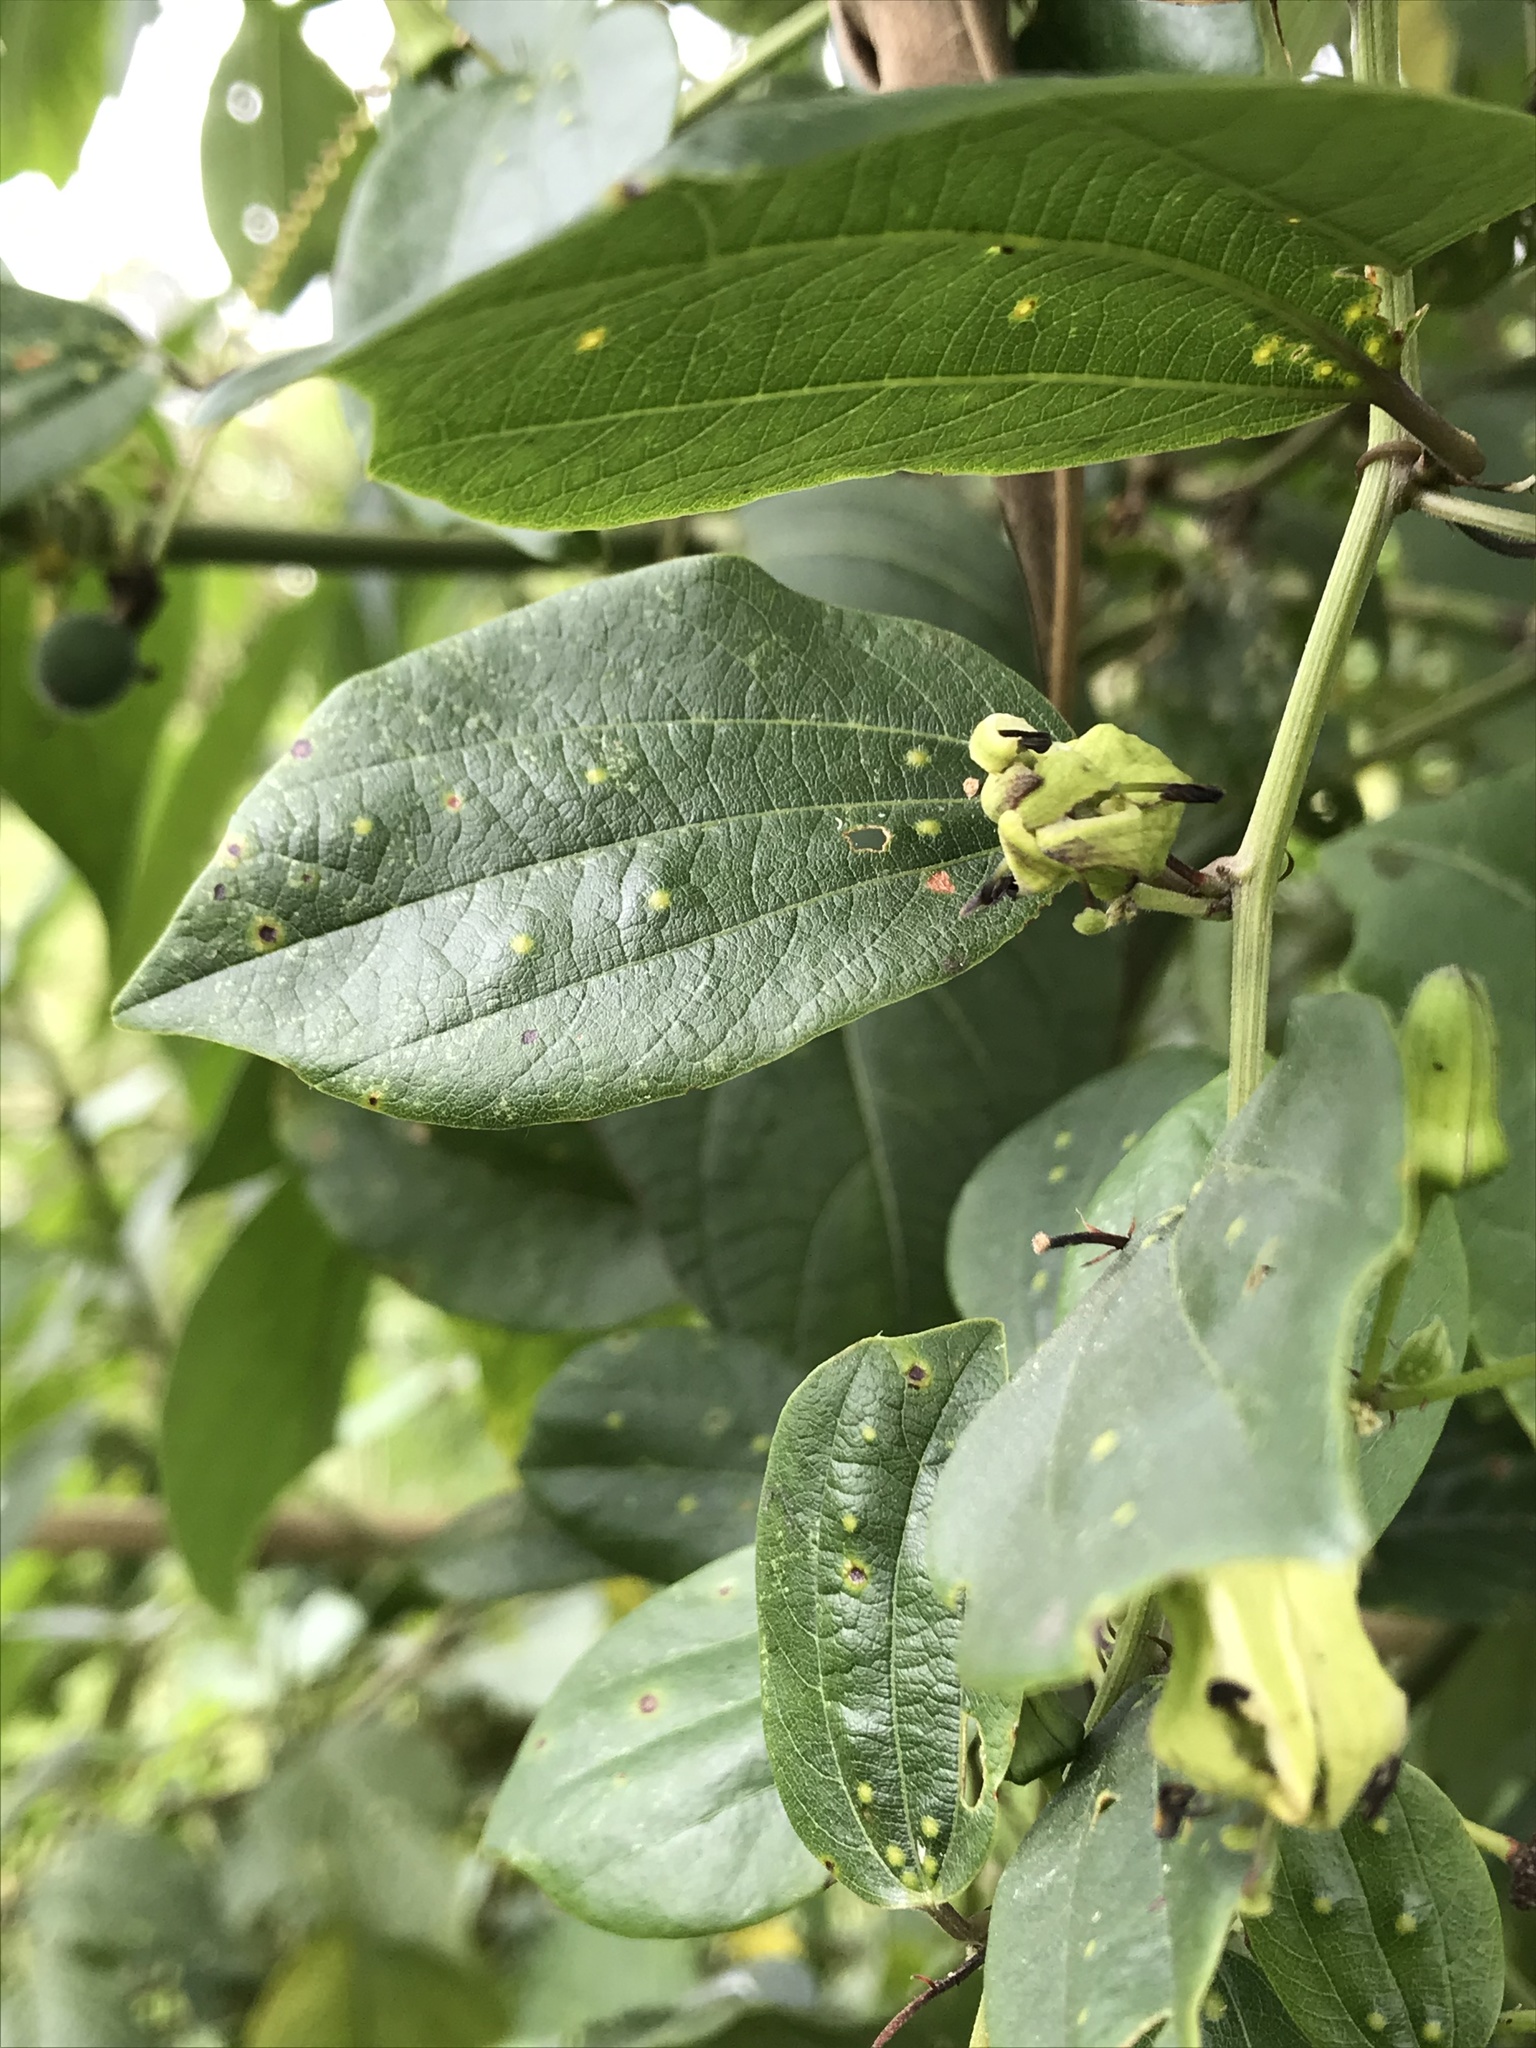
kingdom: Plantae
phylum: Tracheophyta
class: Magnoliopsida
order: Malpighiales
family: Passifloraceae
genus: Passiflora
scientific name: Passiflora cuspidifolia
